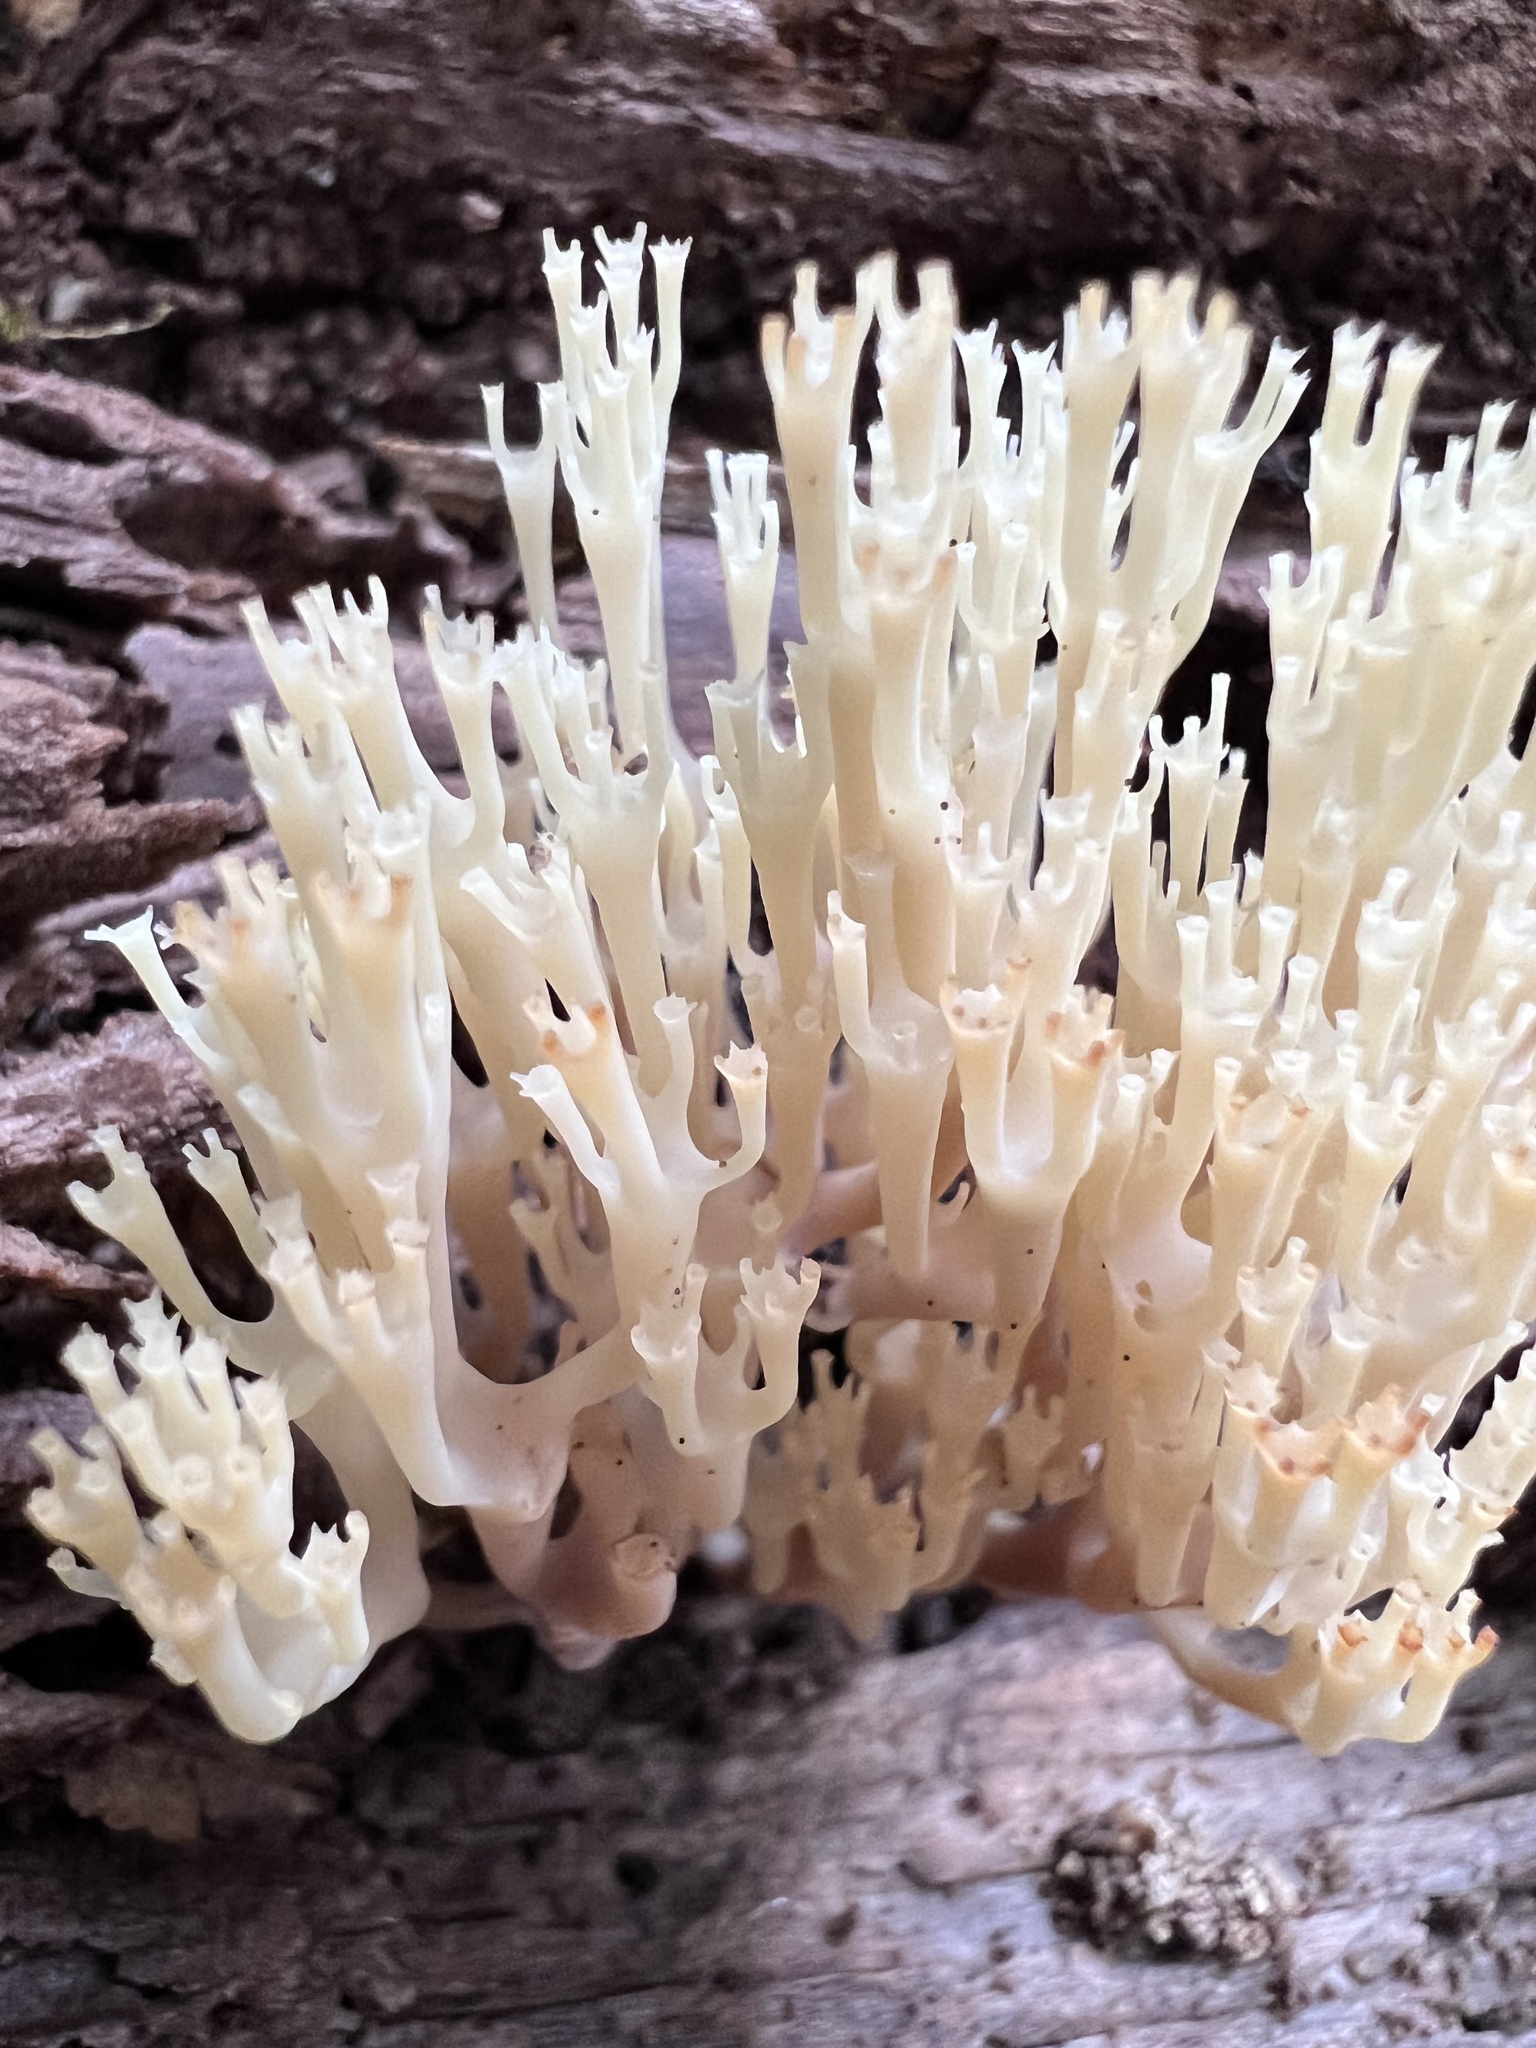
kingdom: Fungi
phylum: Basidiomycota
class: Agaricomycetes
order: Russulales
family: Auriscalpiaceae
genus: Artomyces
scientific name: Artomyces pyxidatus
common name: Crown-tipped coral fungus
